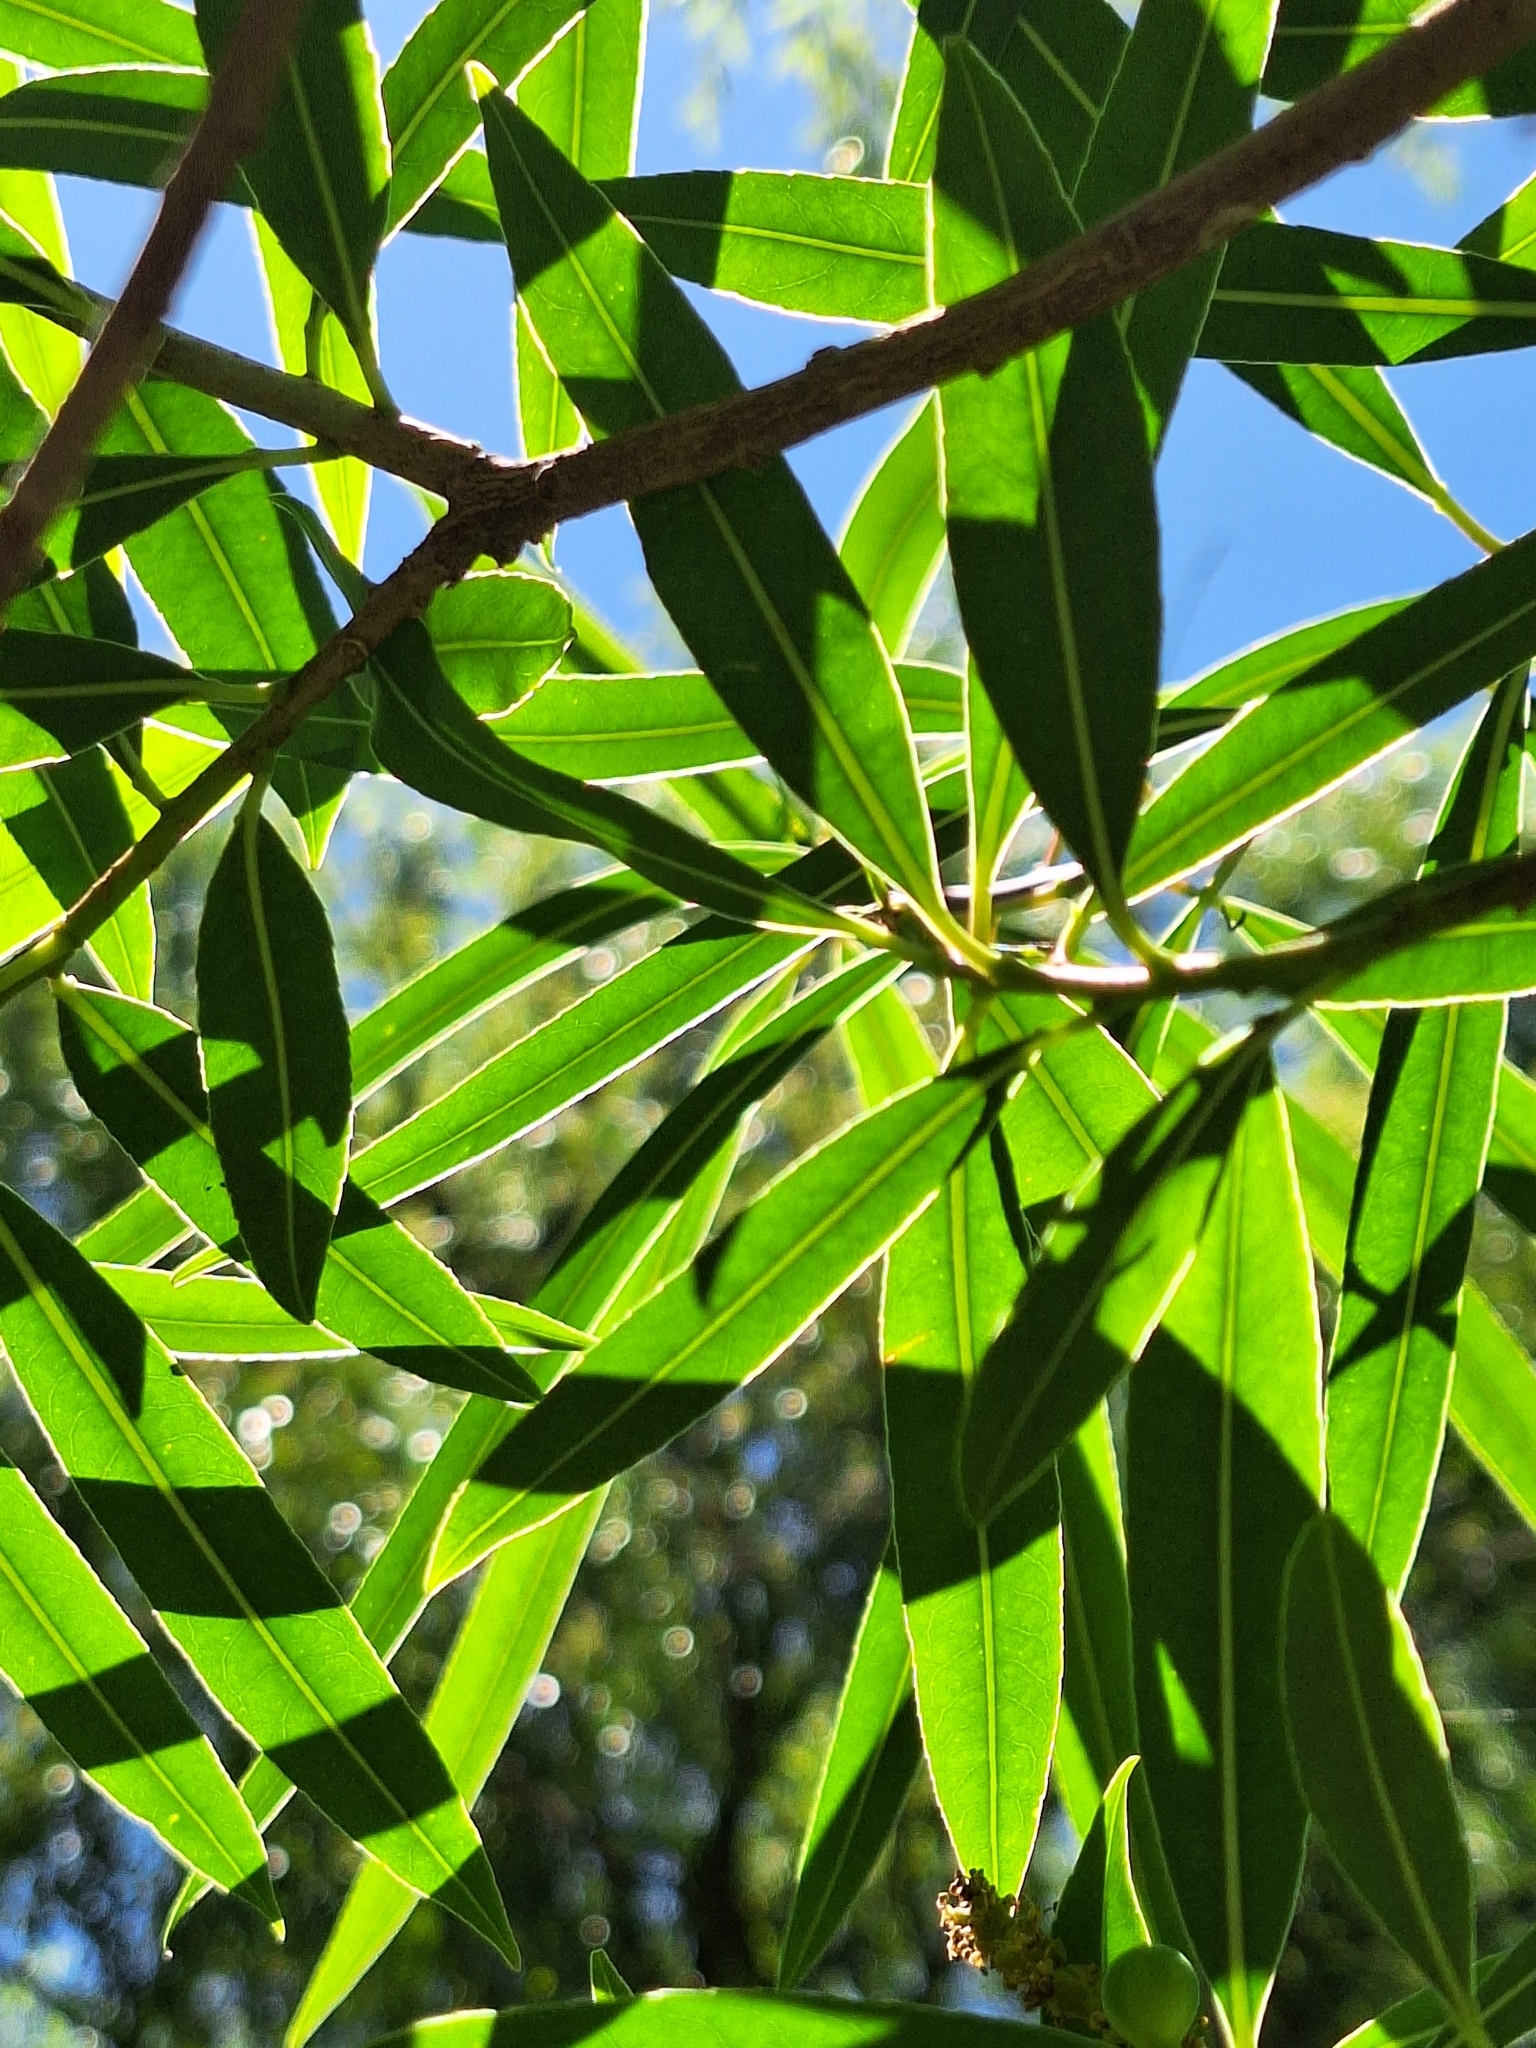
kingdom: Plantae
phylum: Tracheophyta
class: Magnoliopsida
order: Malpighiales
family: Euphorbiaceae
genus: Sapium
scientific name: Sapium haematospermum
